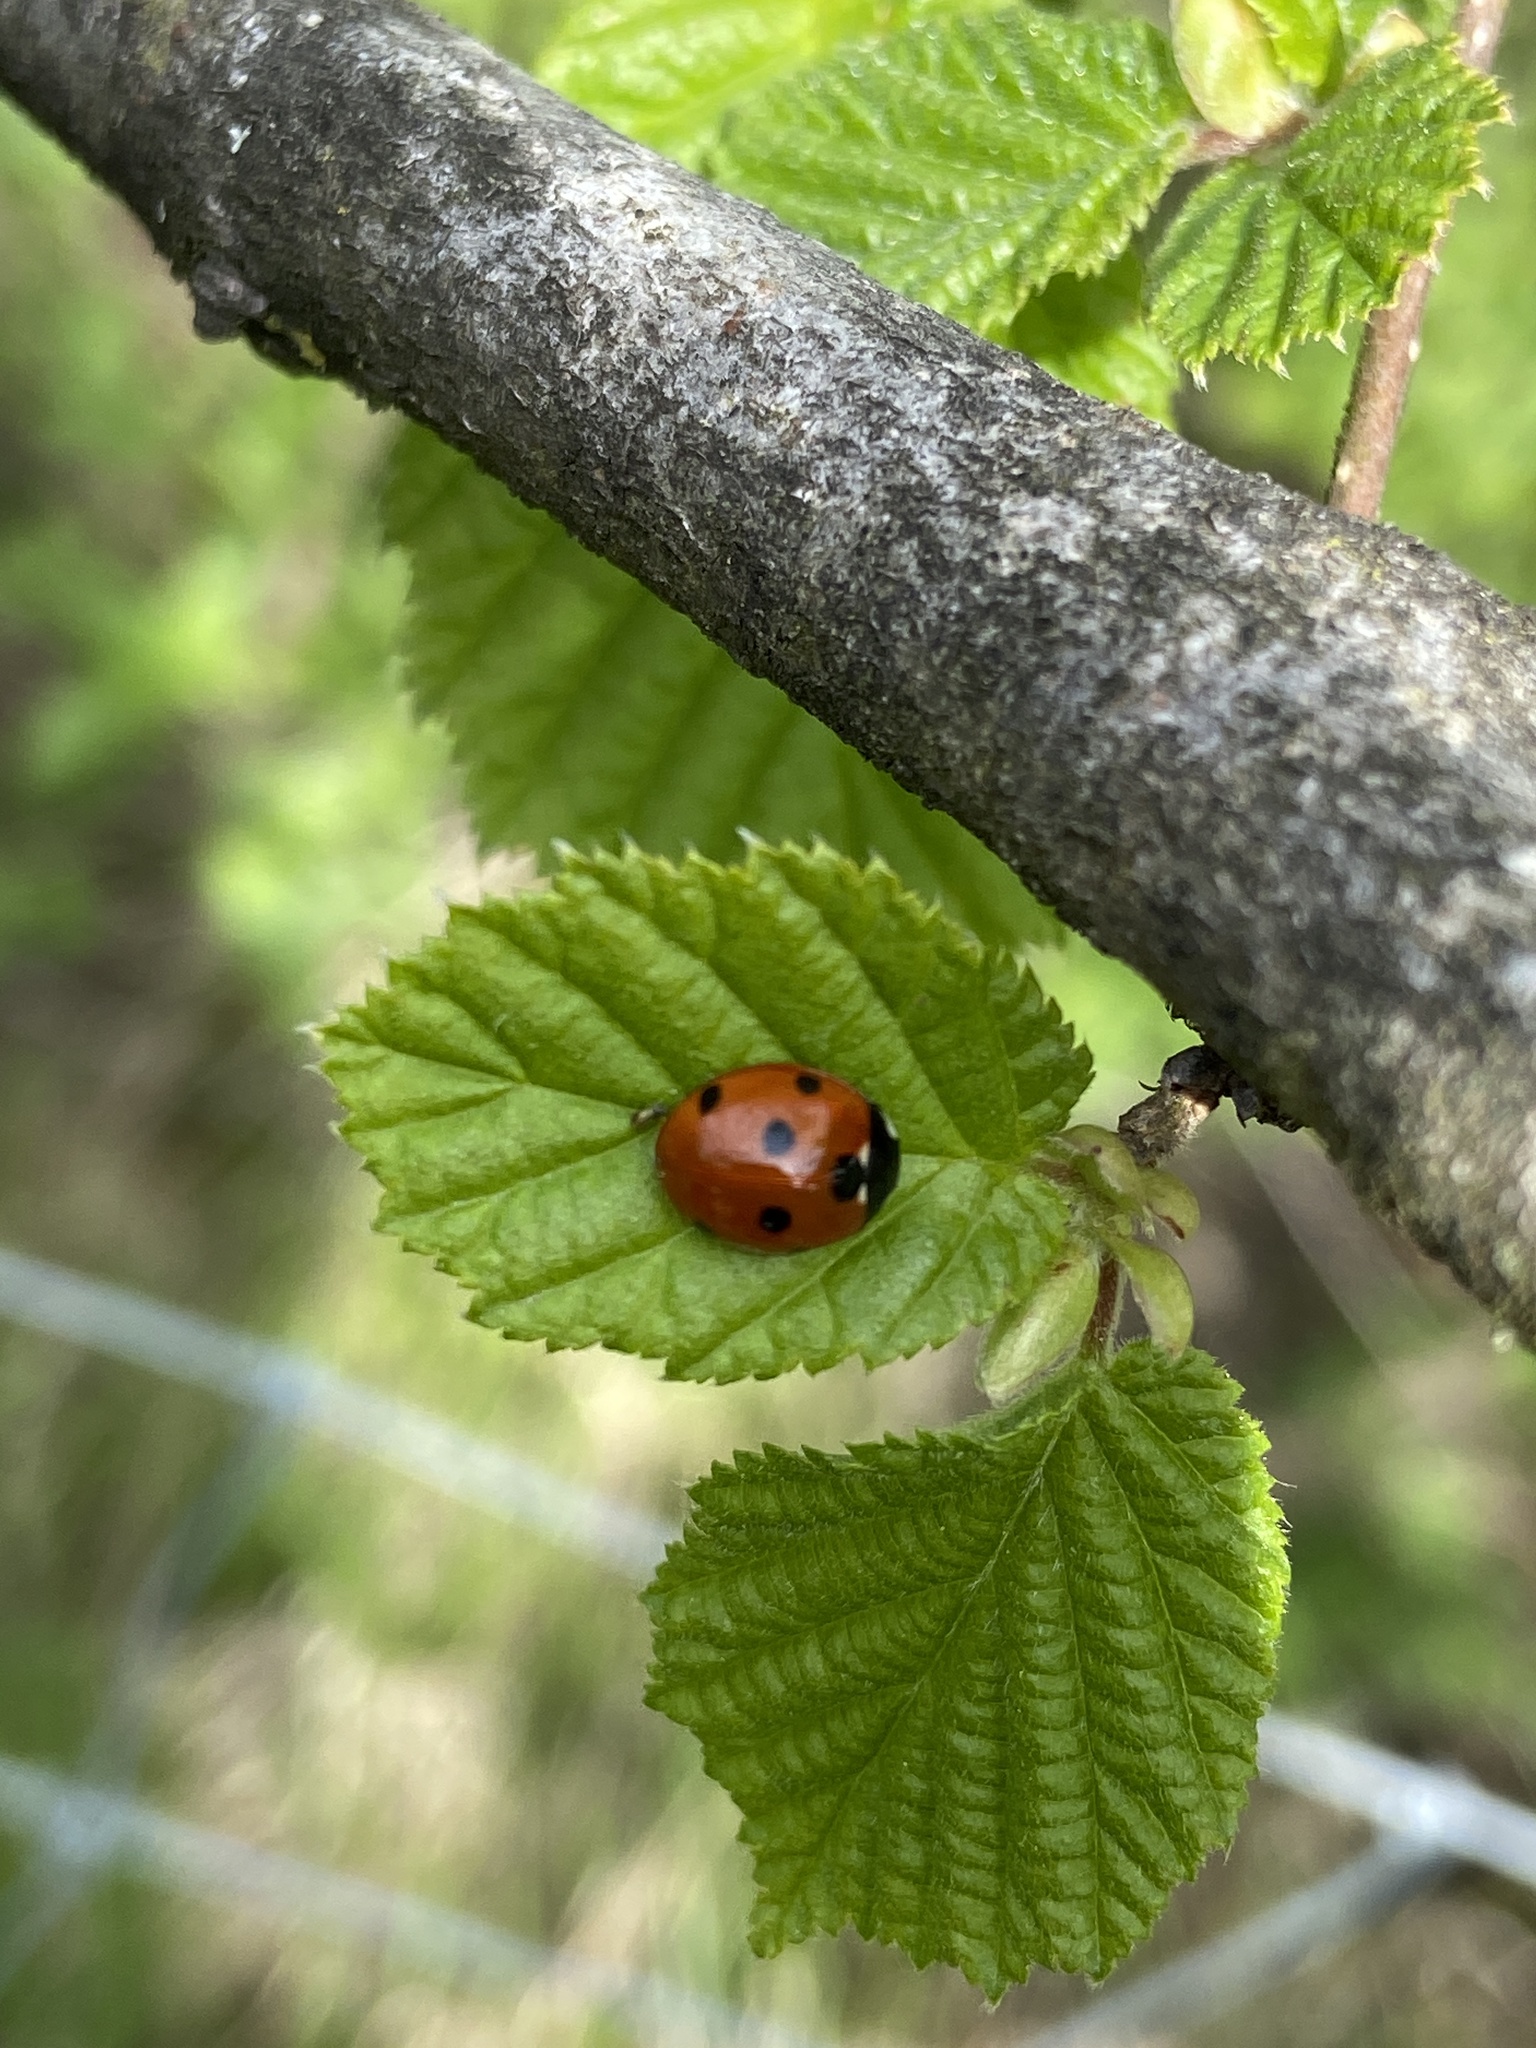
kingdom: Animalia
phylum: Arthropoda
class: Insecta
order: Coleoptera
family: Coccinellidae
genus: Coccinella
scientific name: Coccinella septempunctata
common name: Sevenspotted lady beetle
